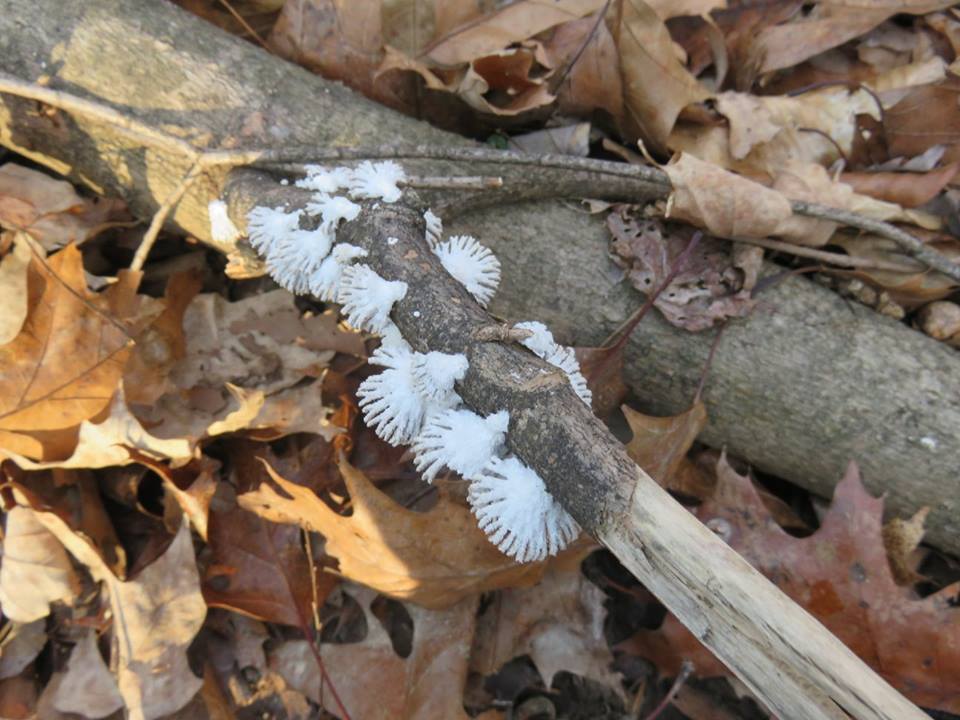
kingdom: Fungi
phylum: Basidiomycota
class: Agaricomycetes
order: Agaricales
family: Schizophyllaceae
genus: Schizophyllum
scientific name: Schizophyllum commune
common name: Common porecrust
